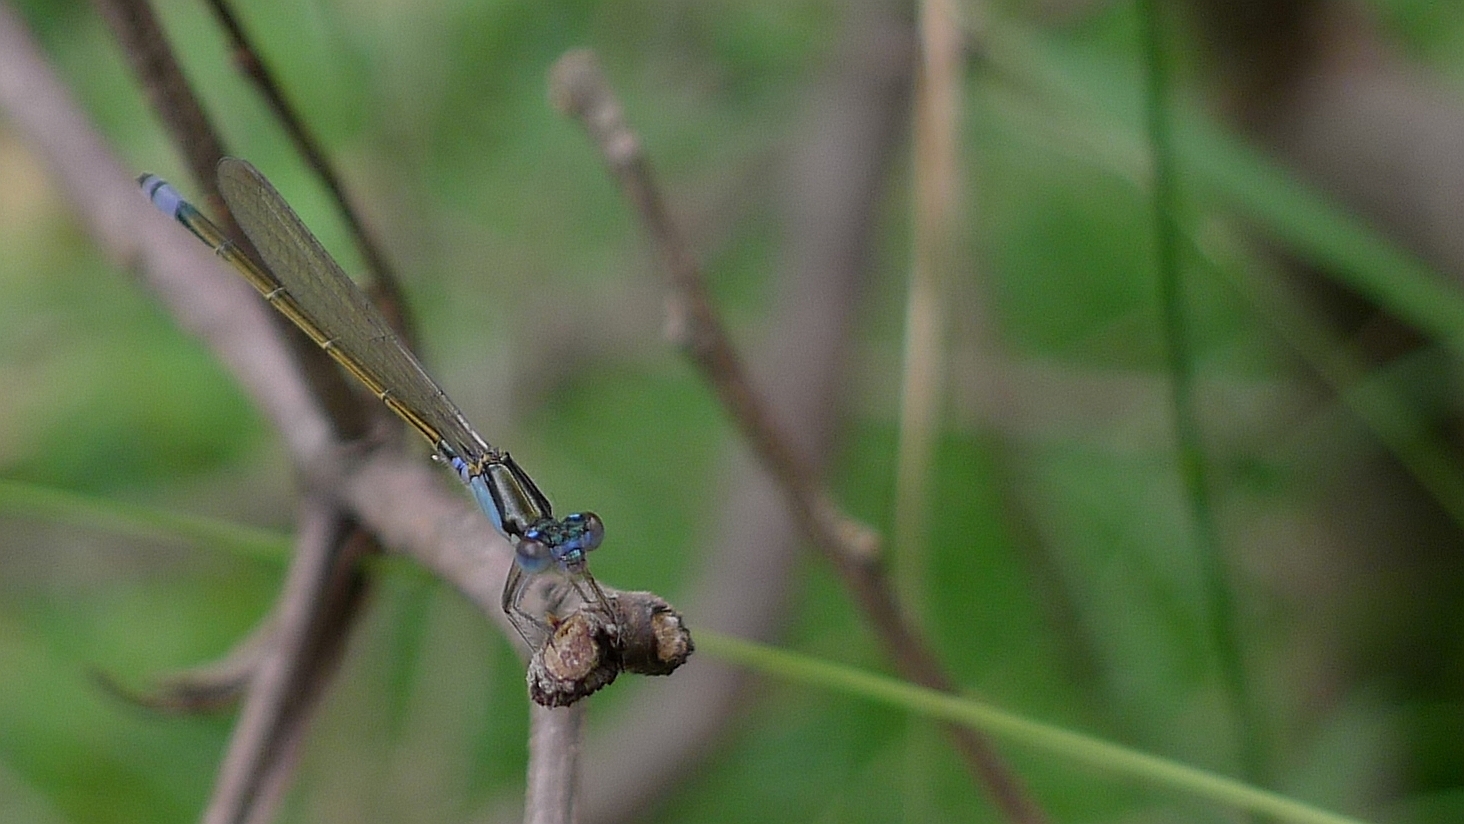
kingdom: Animalia
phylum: Arthropoda
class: Insecta
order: Odonata
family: Coenagrionidae
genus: Ischnura
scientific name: Ischnura heterosticta
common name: Common bluetail
